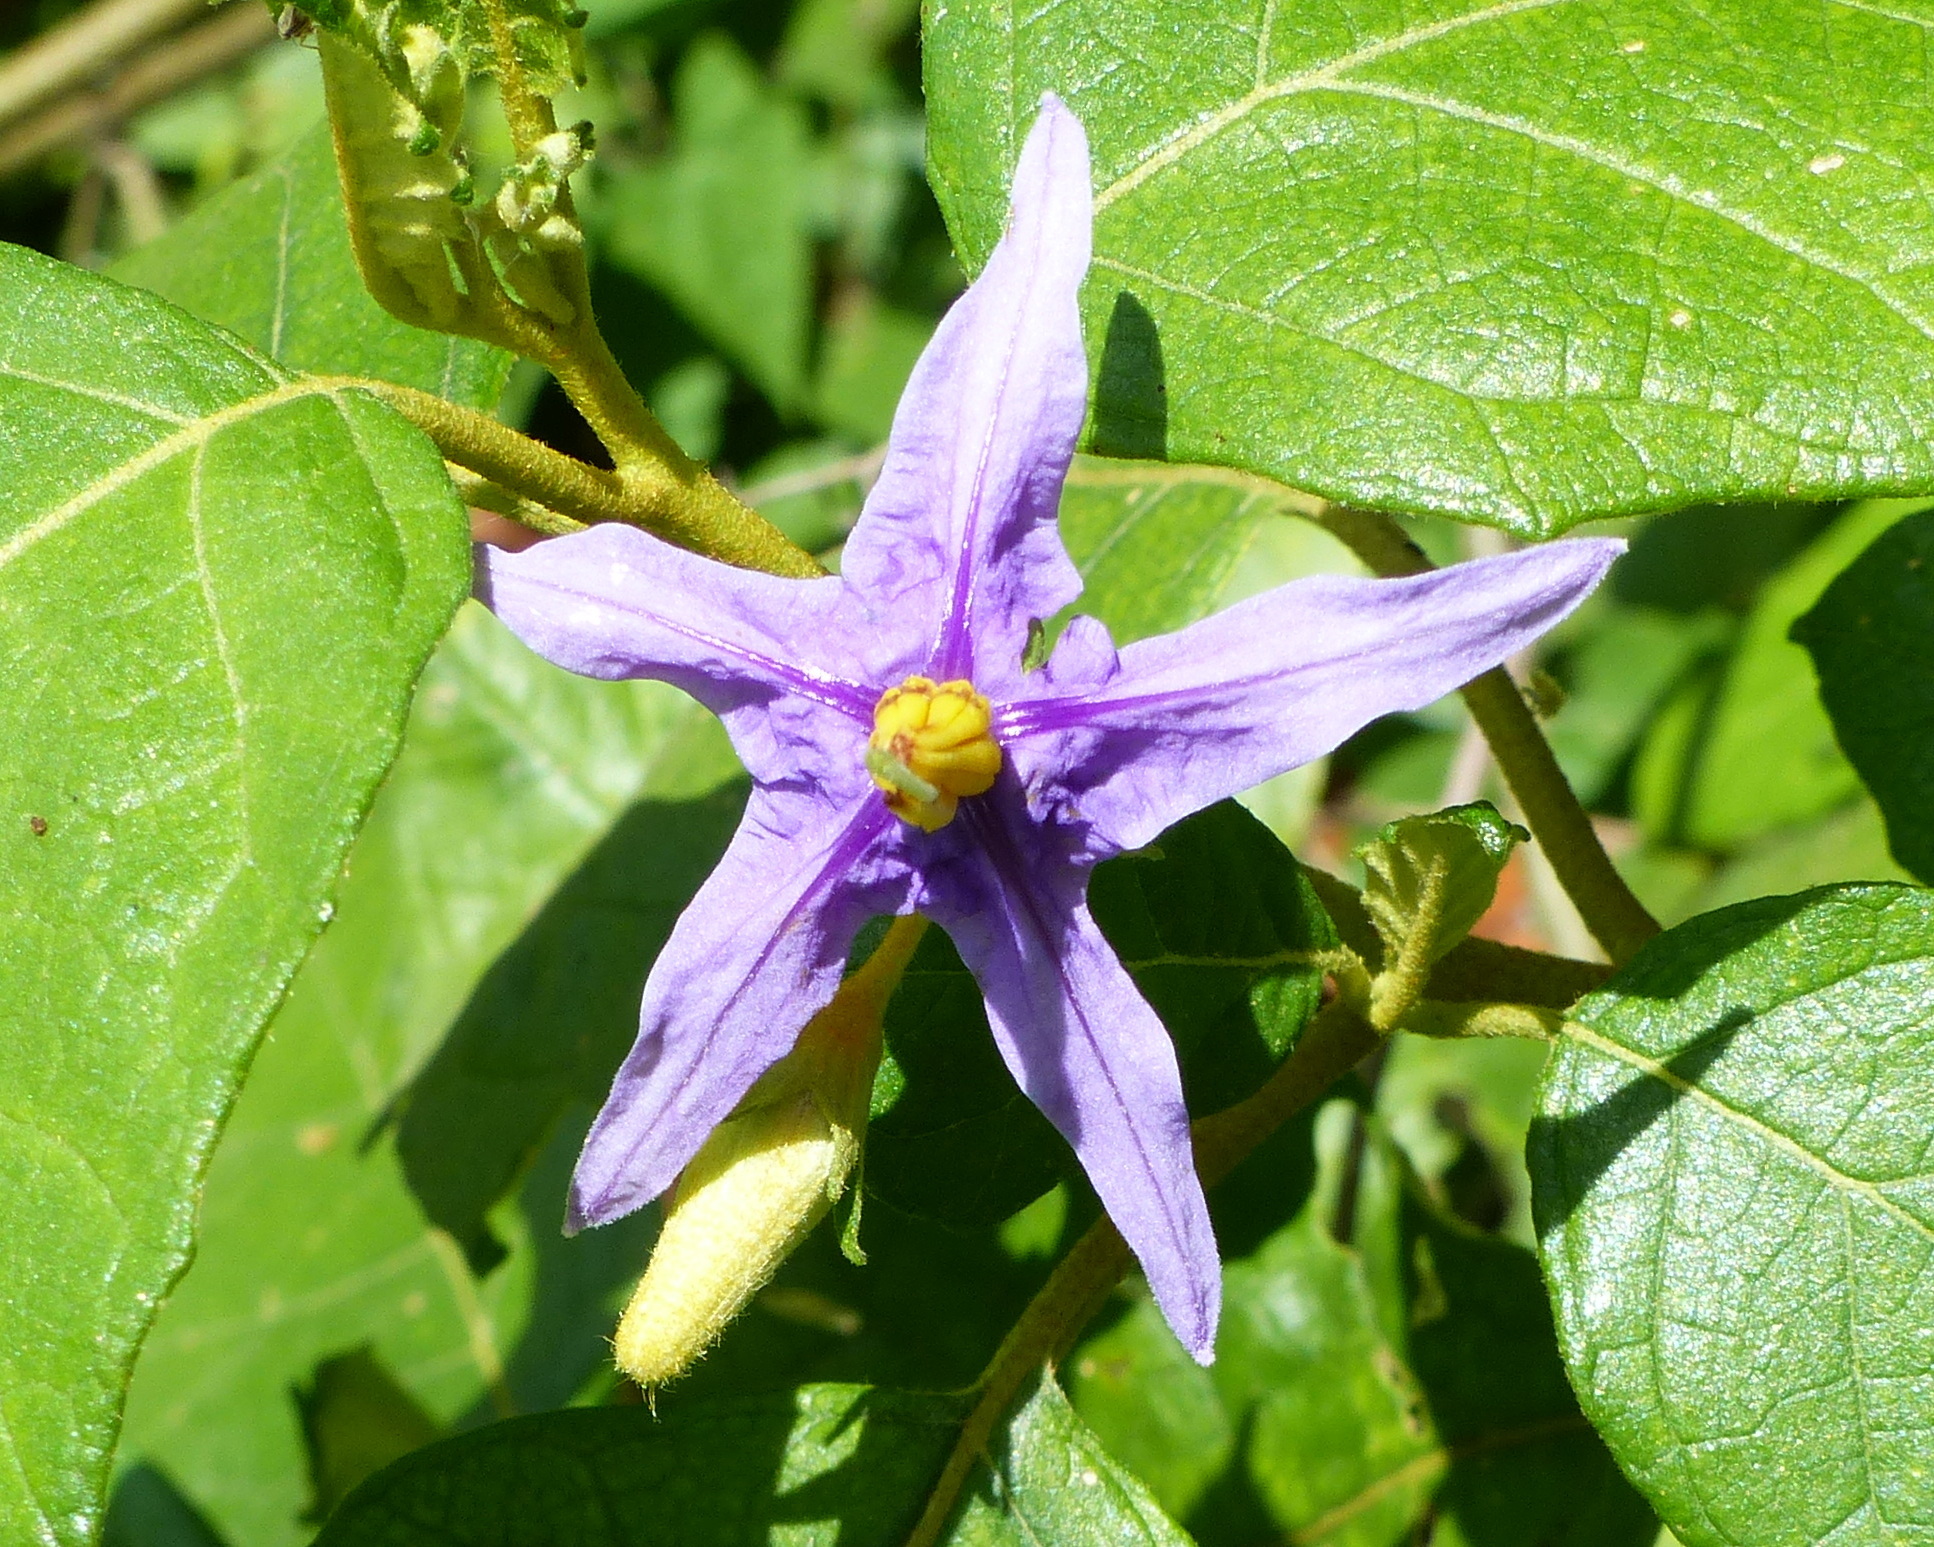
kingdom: Plantae
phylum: Tracheophyta
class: Magnoliopsida
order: Solanales
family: Solanaceae
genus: Solanum
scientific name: Solanum paludosum
